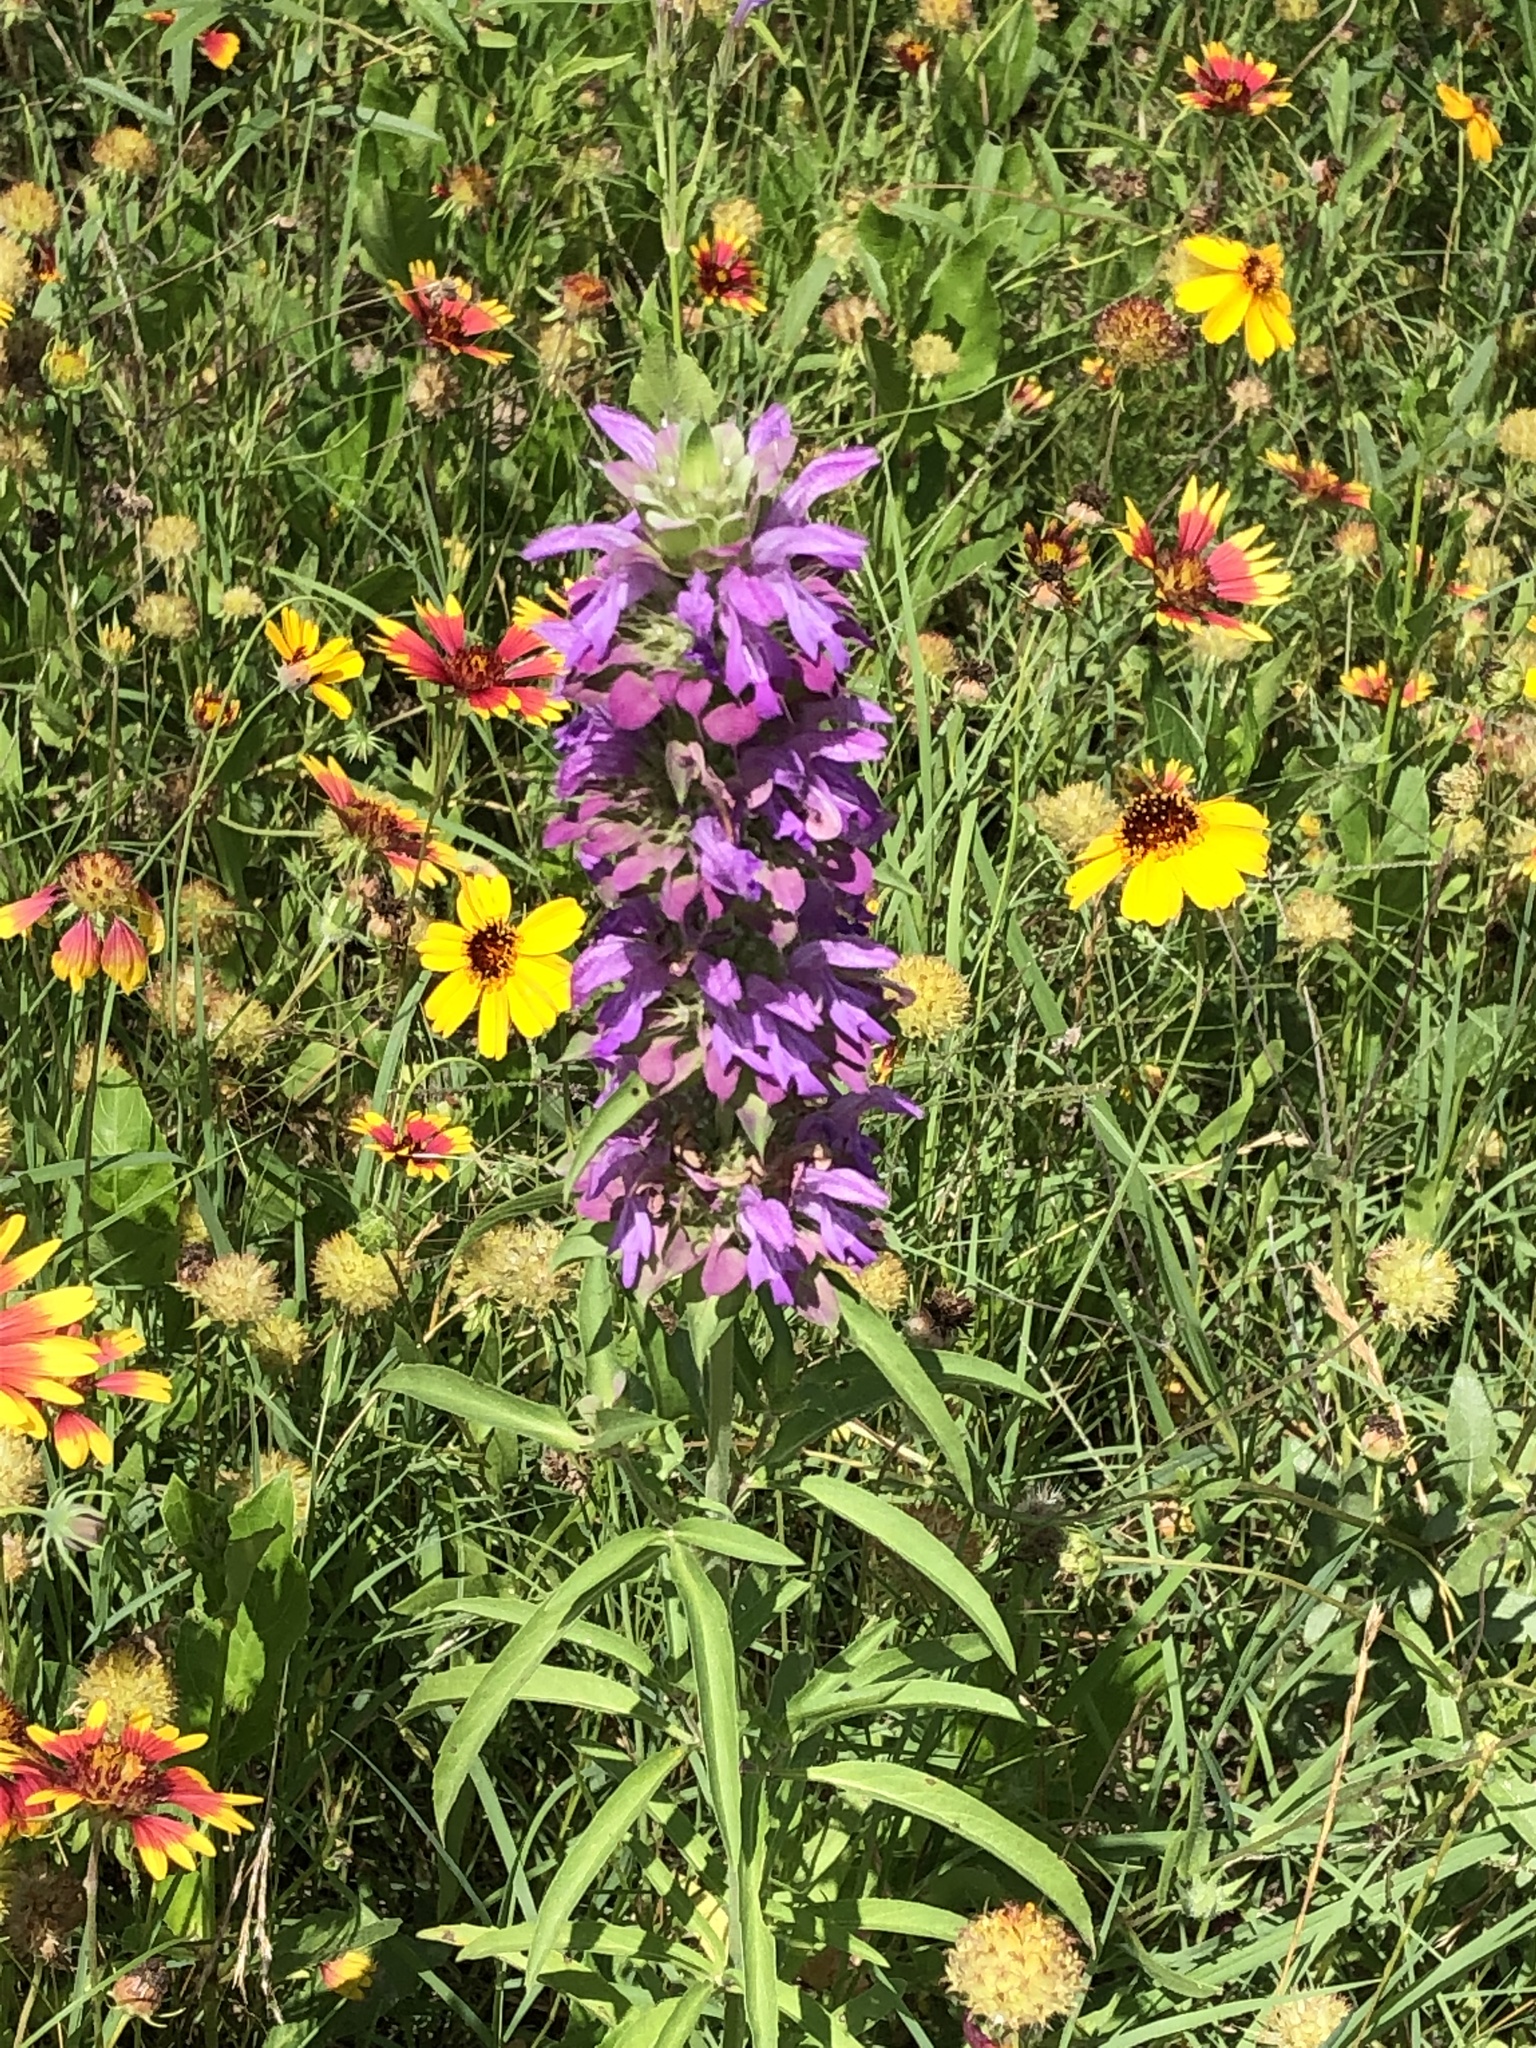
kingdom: Plantae
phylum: Tracheophyta
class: Magnoliopsida
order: Lamiales
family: Lamiaceae
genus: Monarda
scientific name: Monarda citriodora
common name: Lemon beebalm
